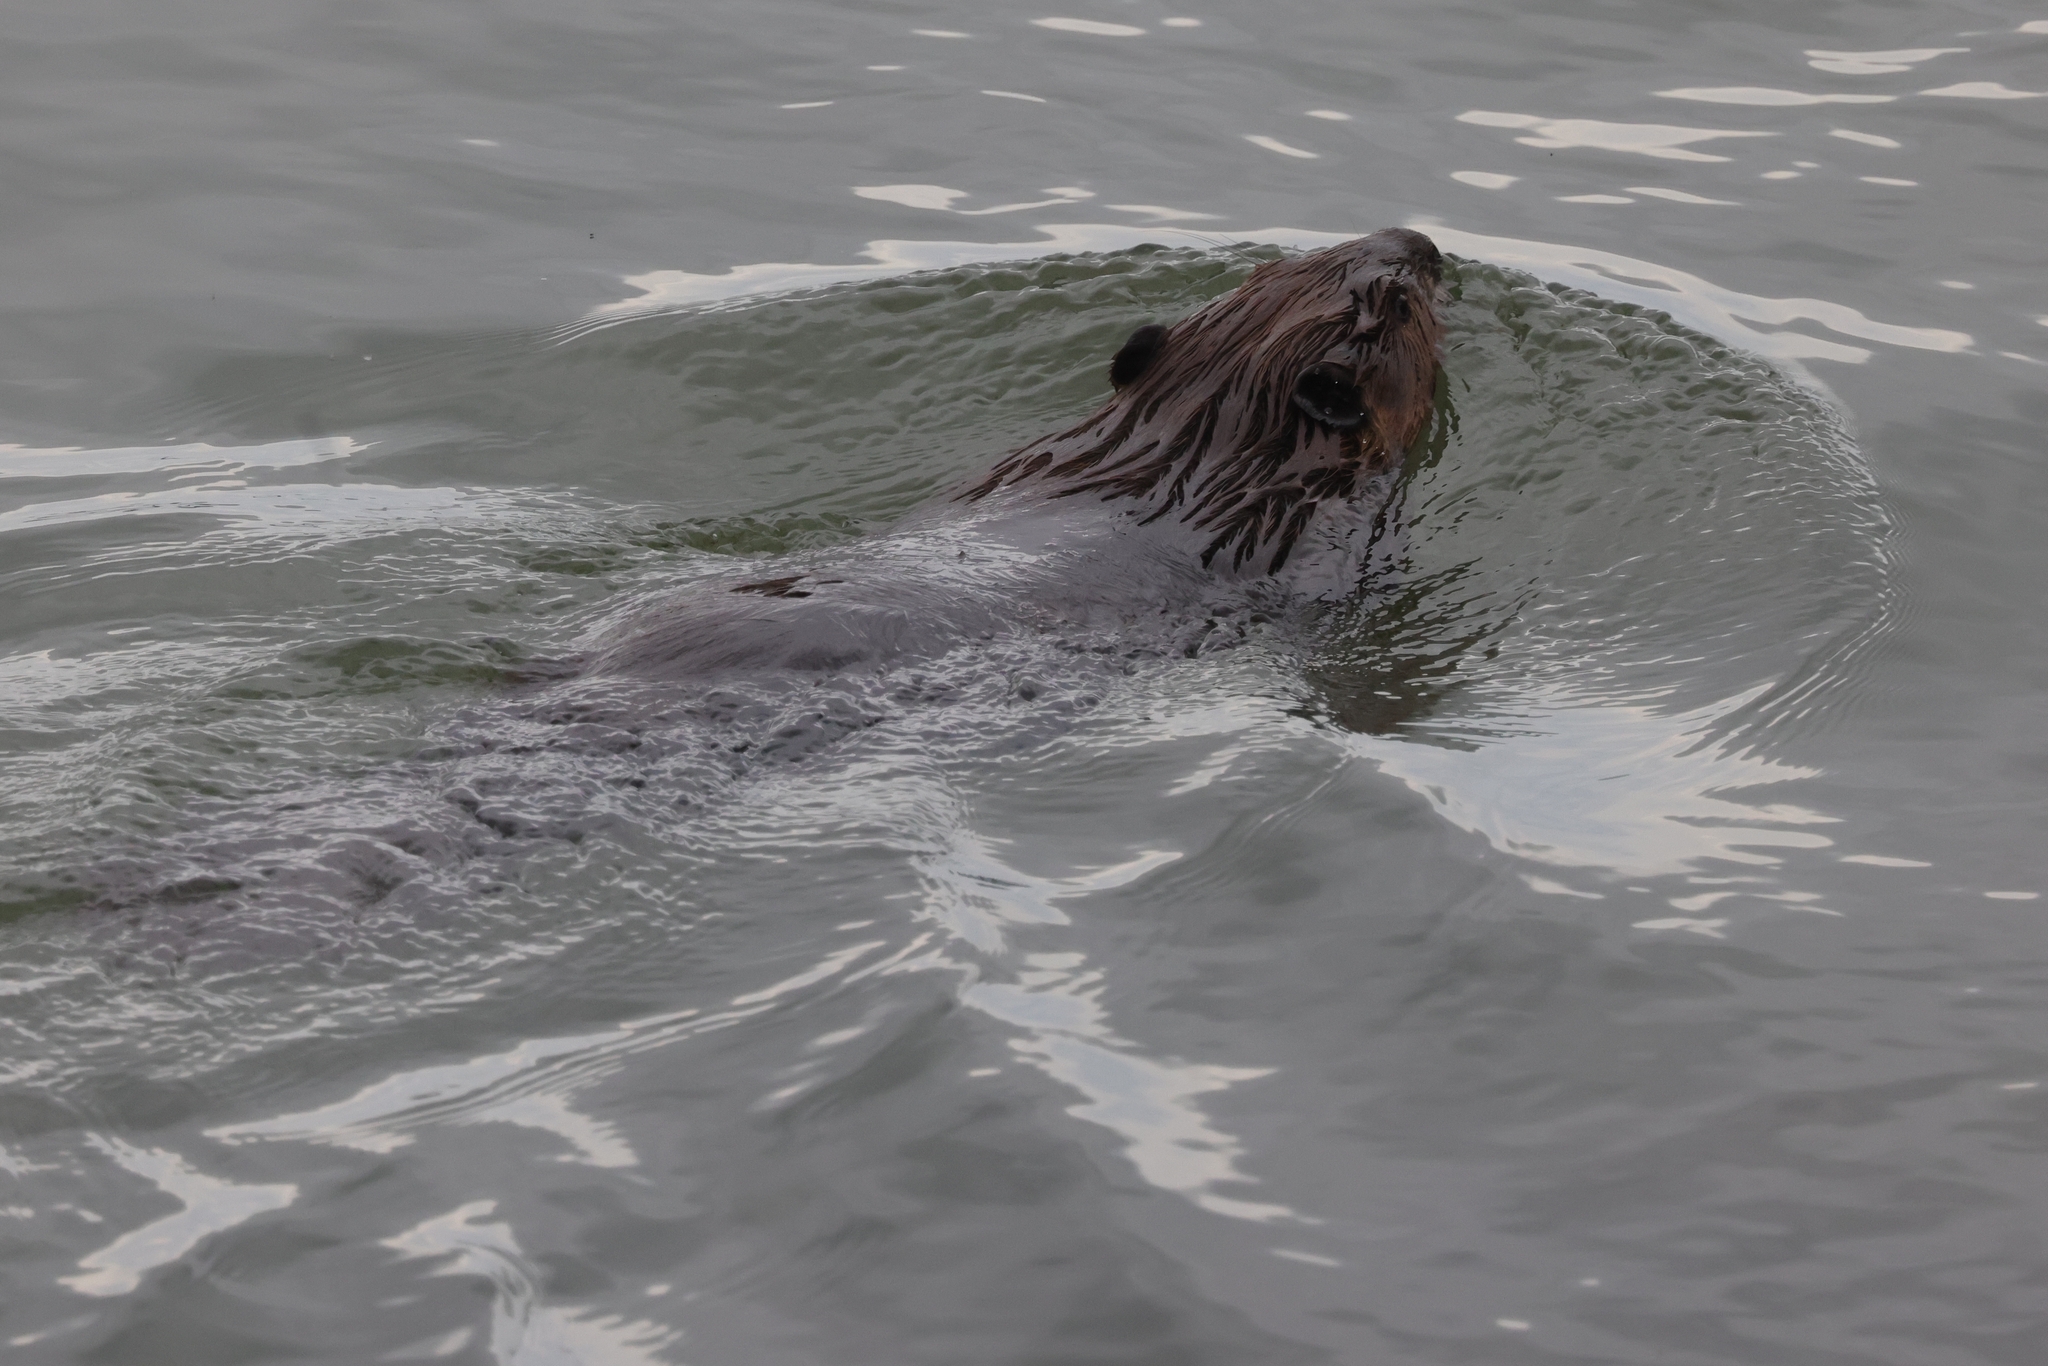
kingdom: Animalia
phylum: Chordata
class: Mammalia
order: Rodentia
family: Castoridae
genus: Castor
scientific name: Castor canadensis
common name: American beaver
